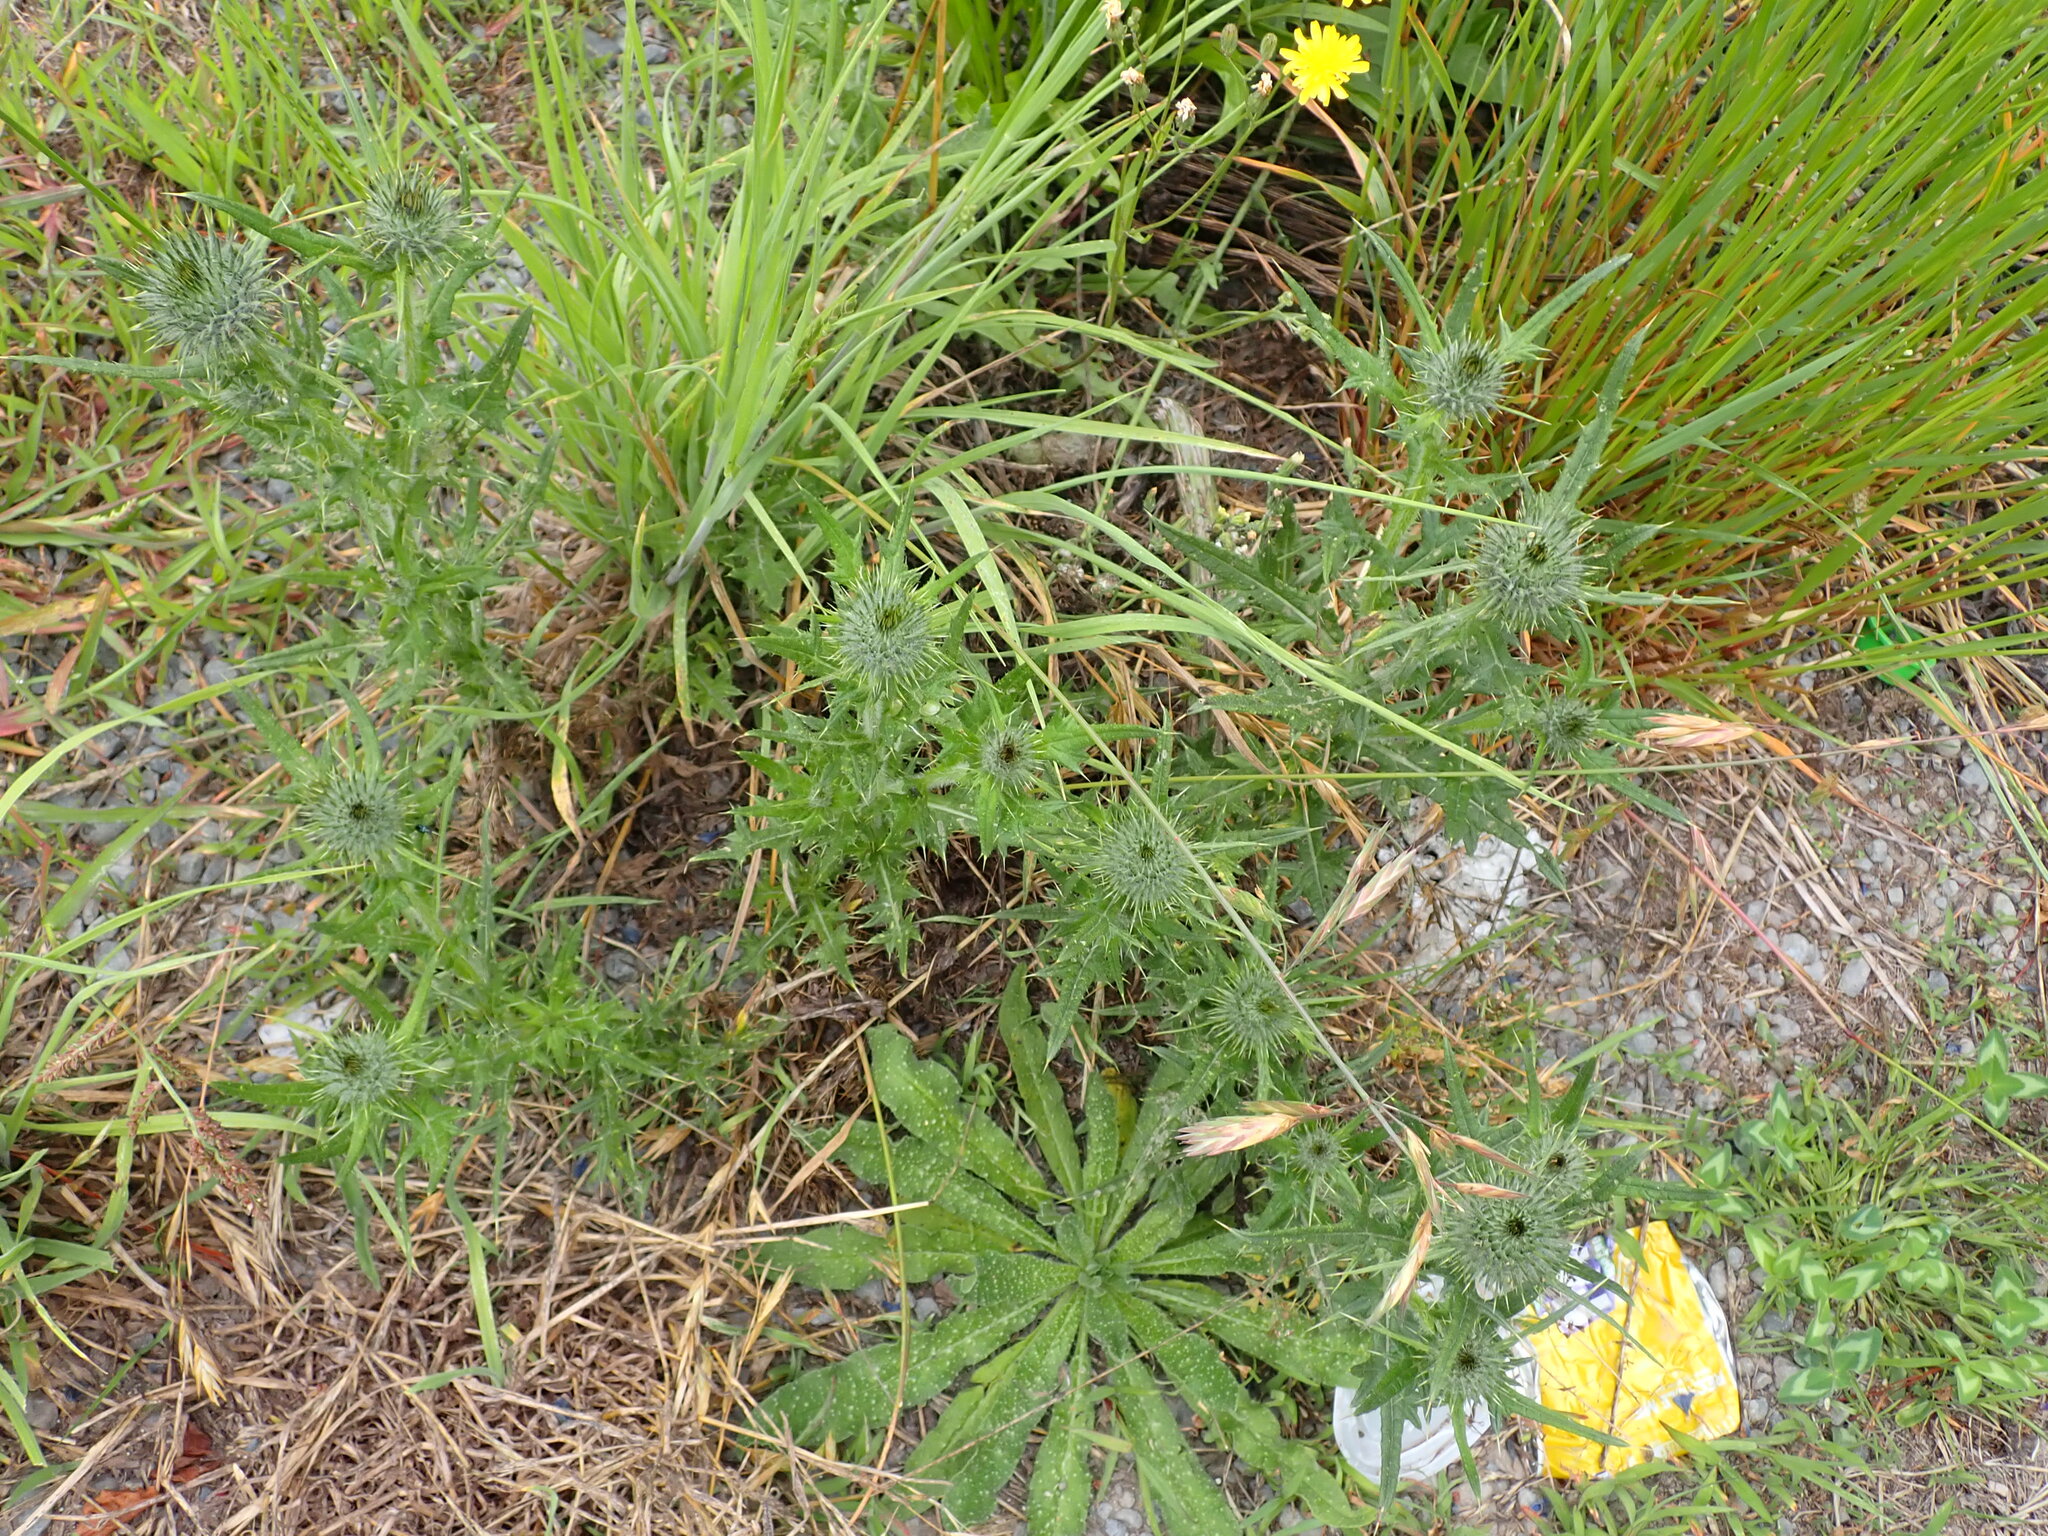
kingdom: Plantae
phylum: Tracheophyta
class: Magnoliopsida
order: Asterales
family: Asteraceae
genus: Cirsium
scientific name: Cirsium vulgare
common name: Bull thistle
